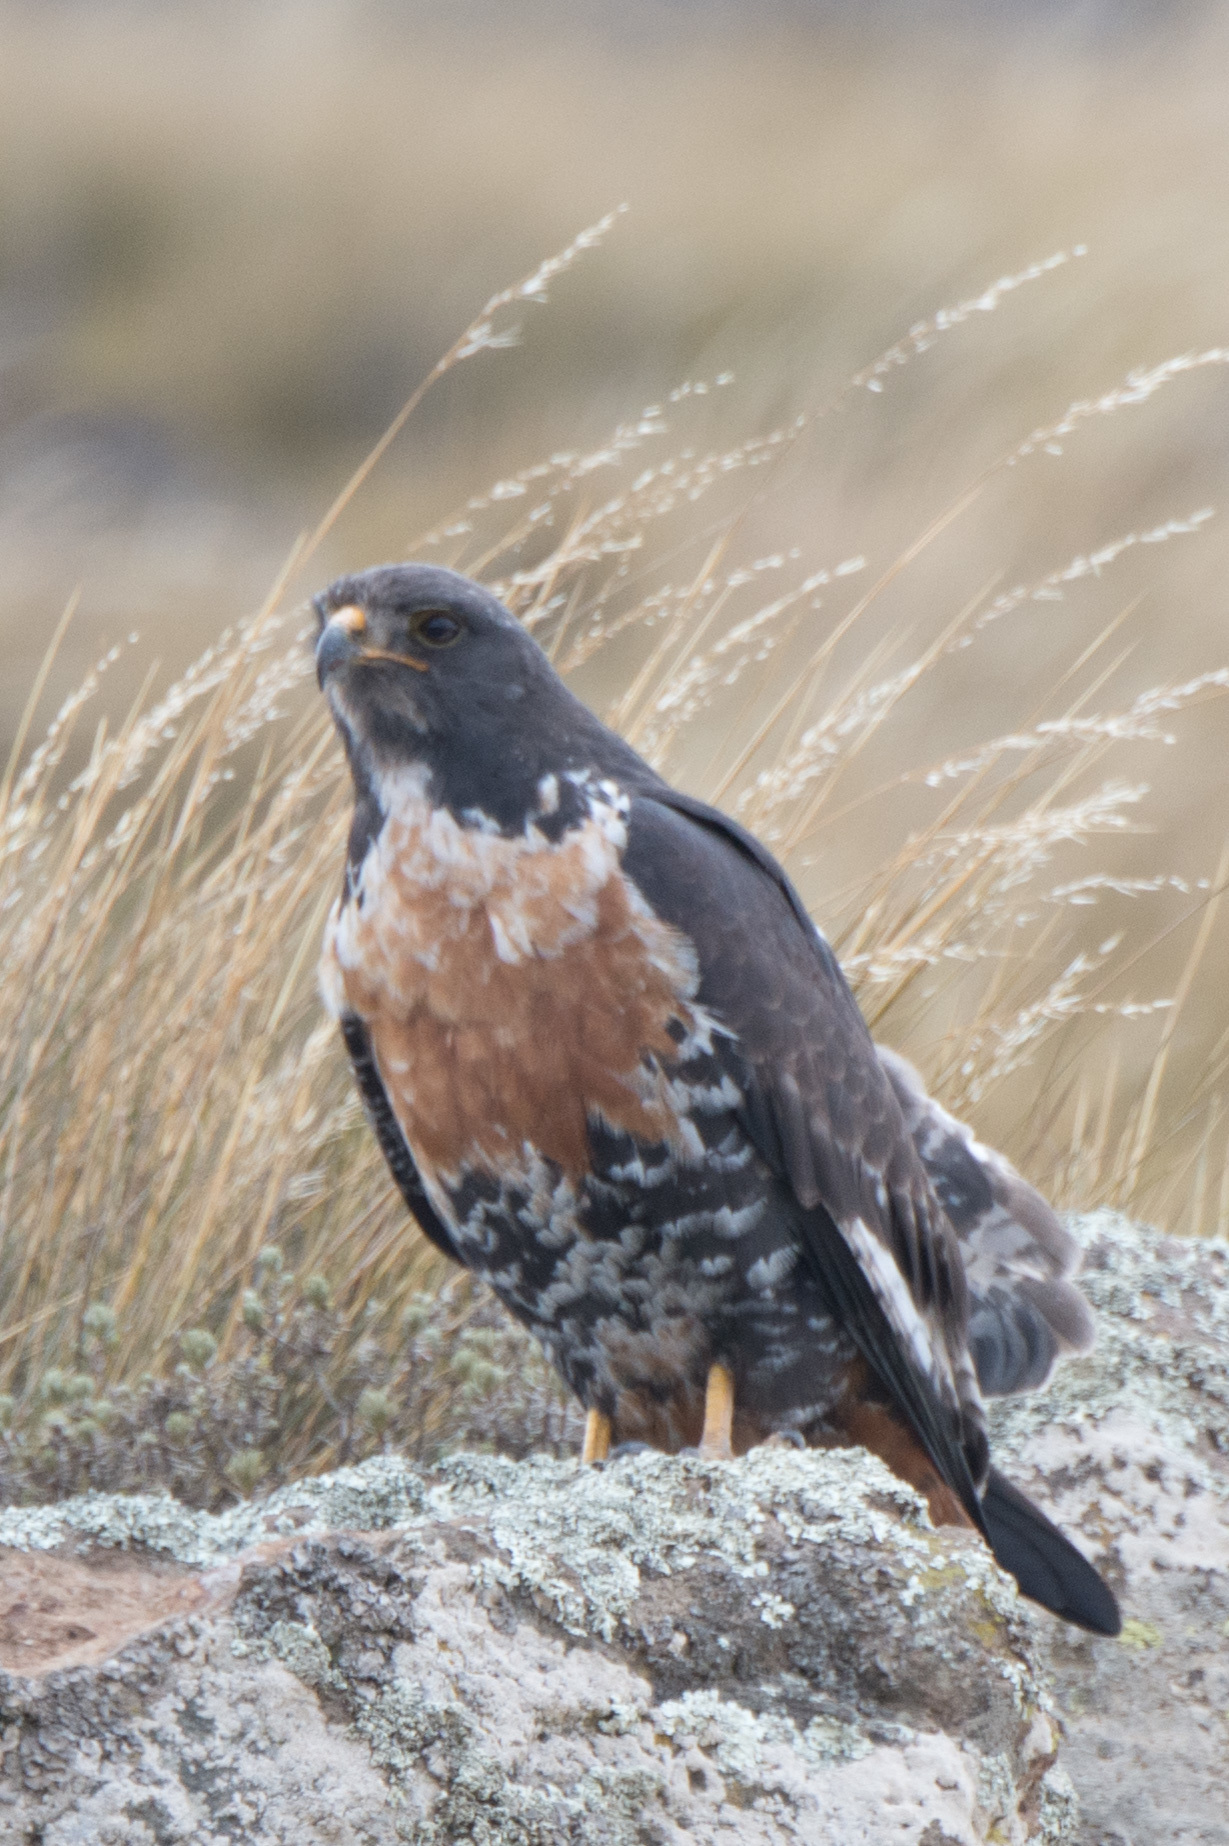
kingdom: Animalia
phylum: Chordata
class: Aves
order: Accipitriformes
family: Accipitridae
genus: Buteo
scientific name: Buteo rufofuscus
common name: Jackal buzzard
